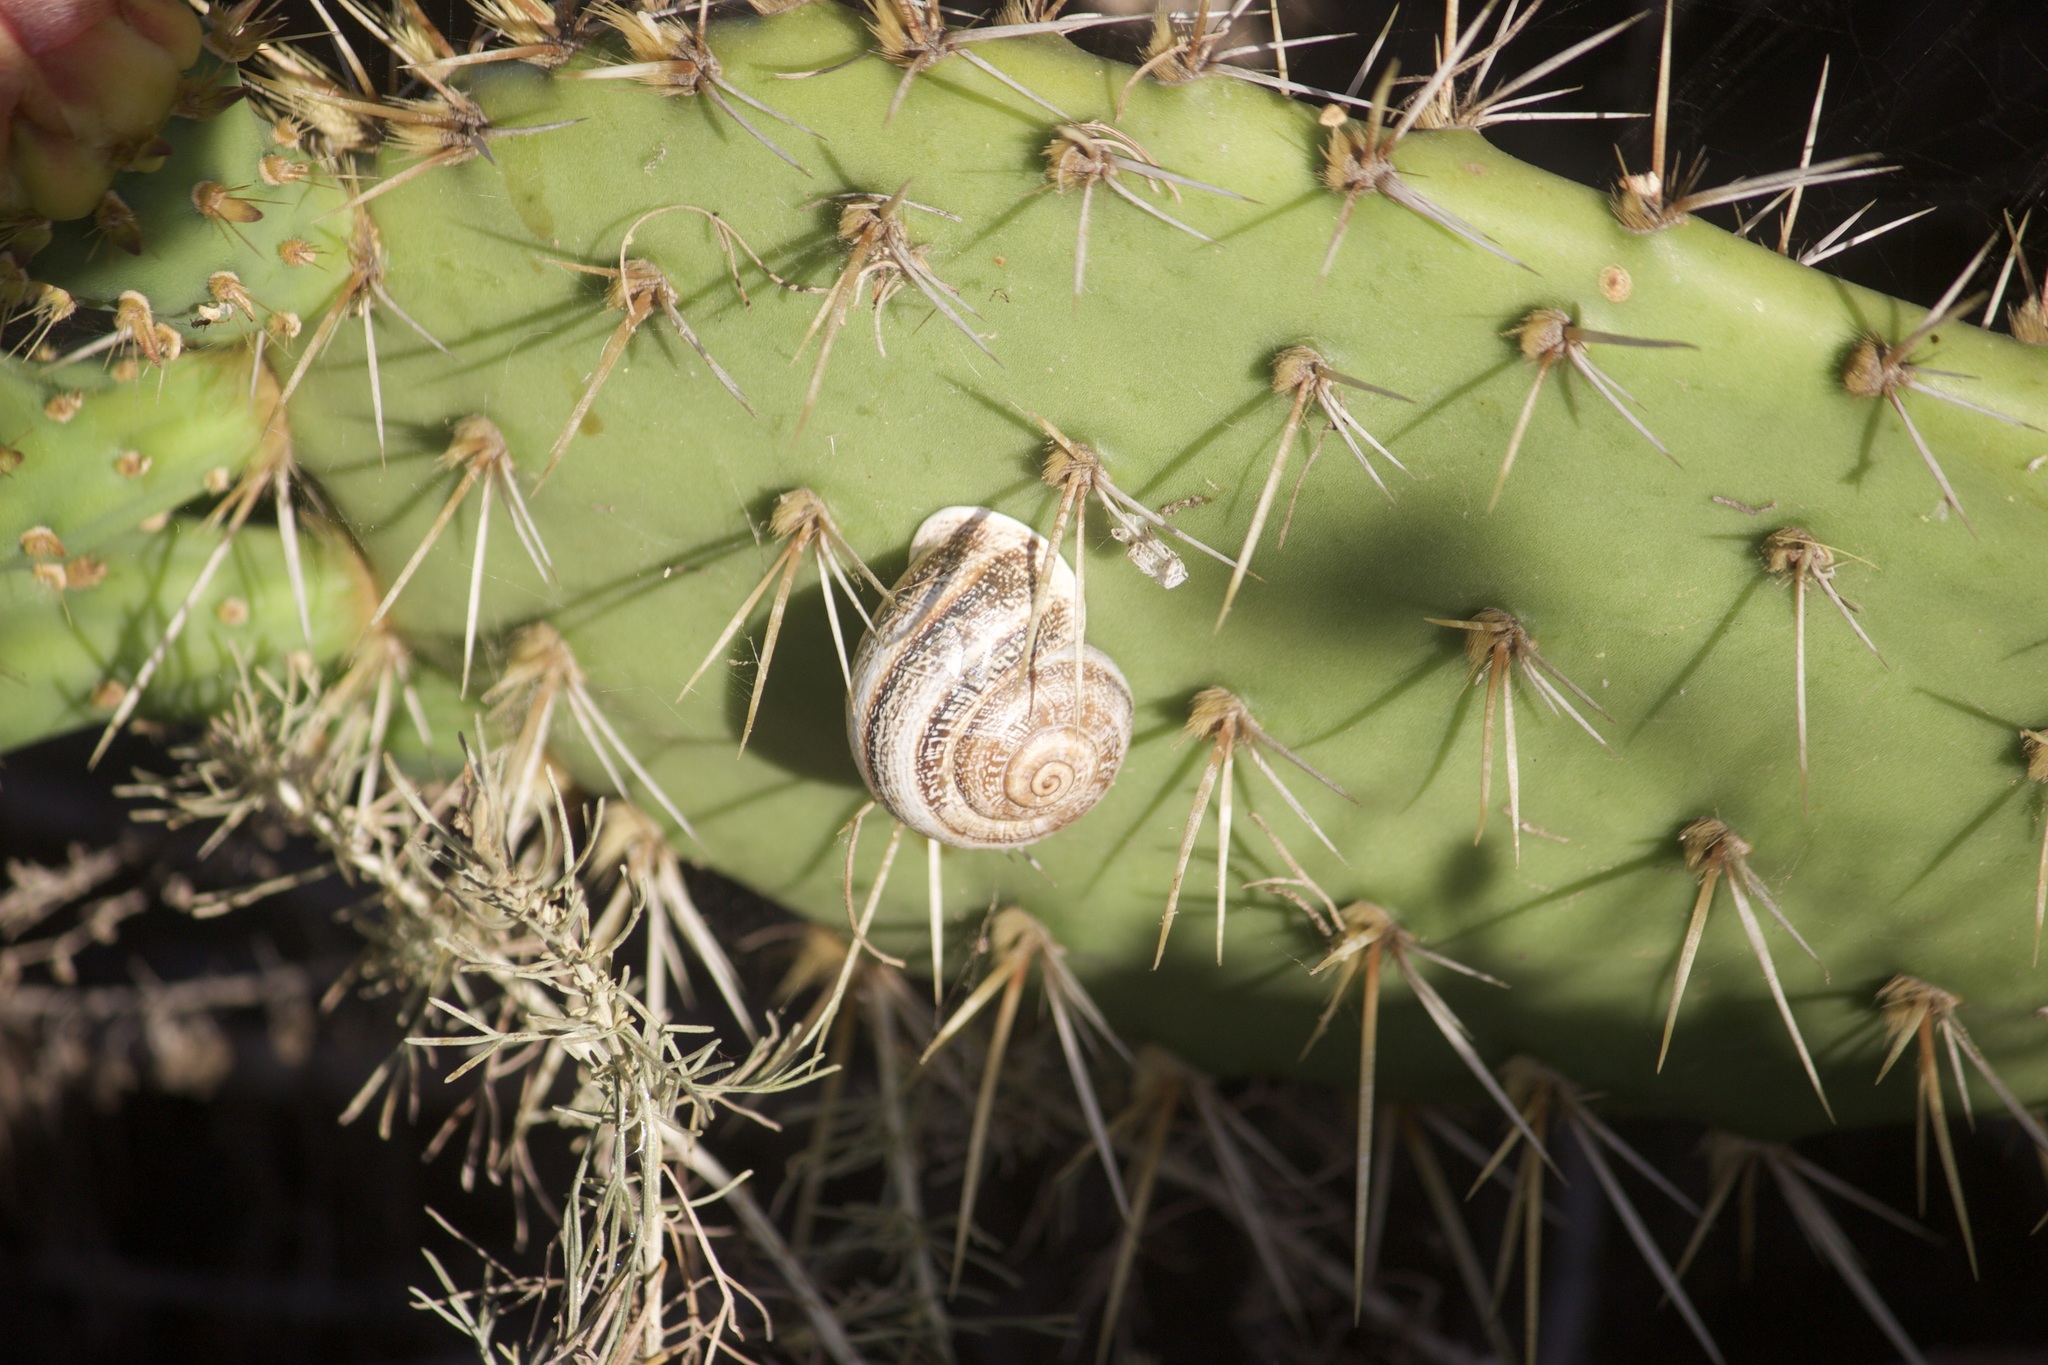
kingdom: Animalia
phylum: Mollusca
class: Gastropoda
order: Stylommatophora
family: Helicidae
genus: Otala
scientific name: Otala lactea
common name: Milk snail
